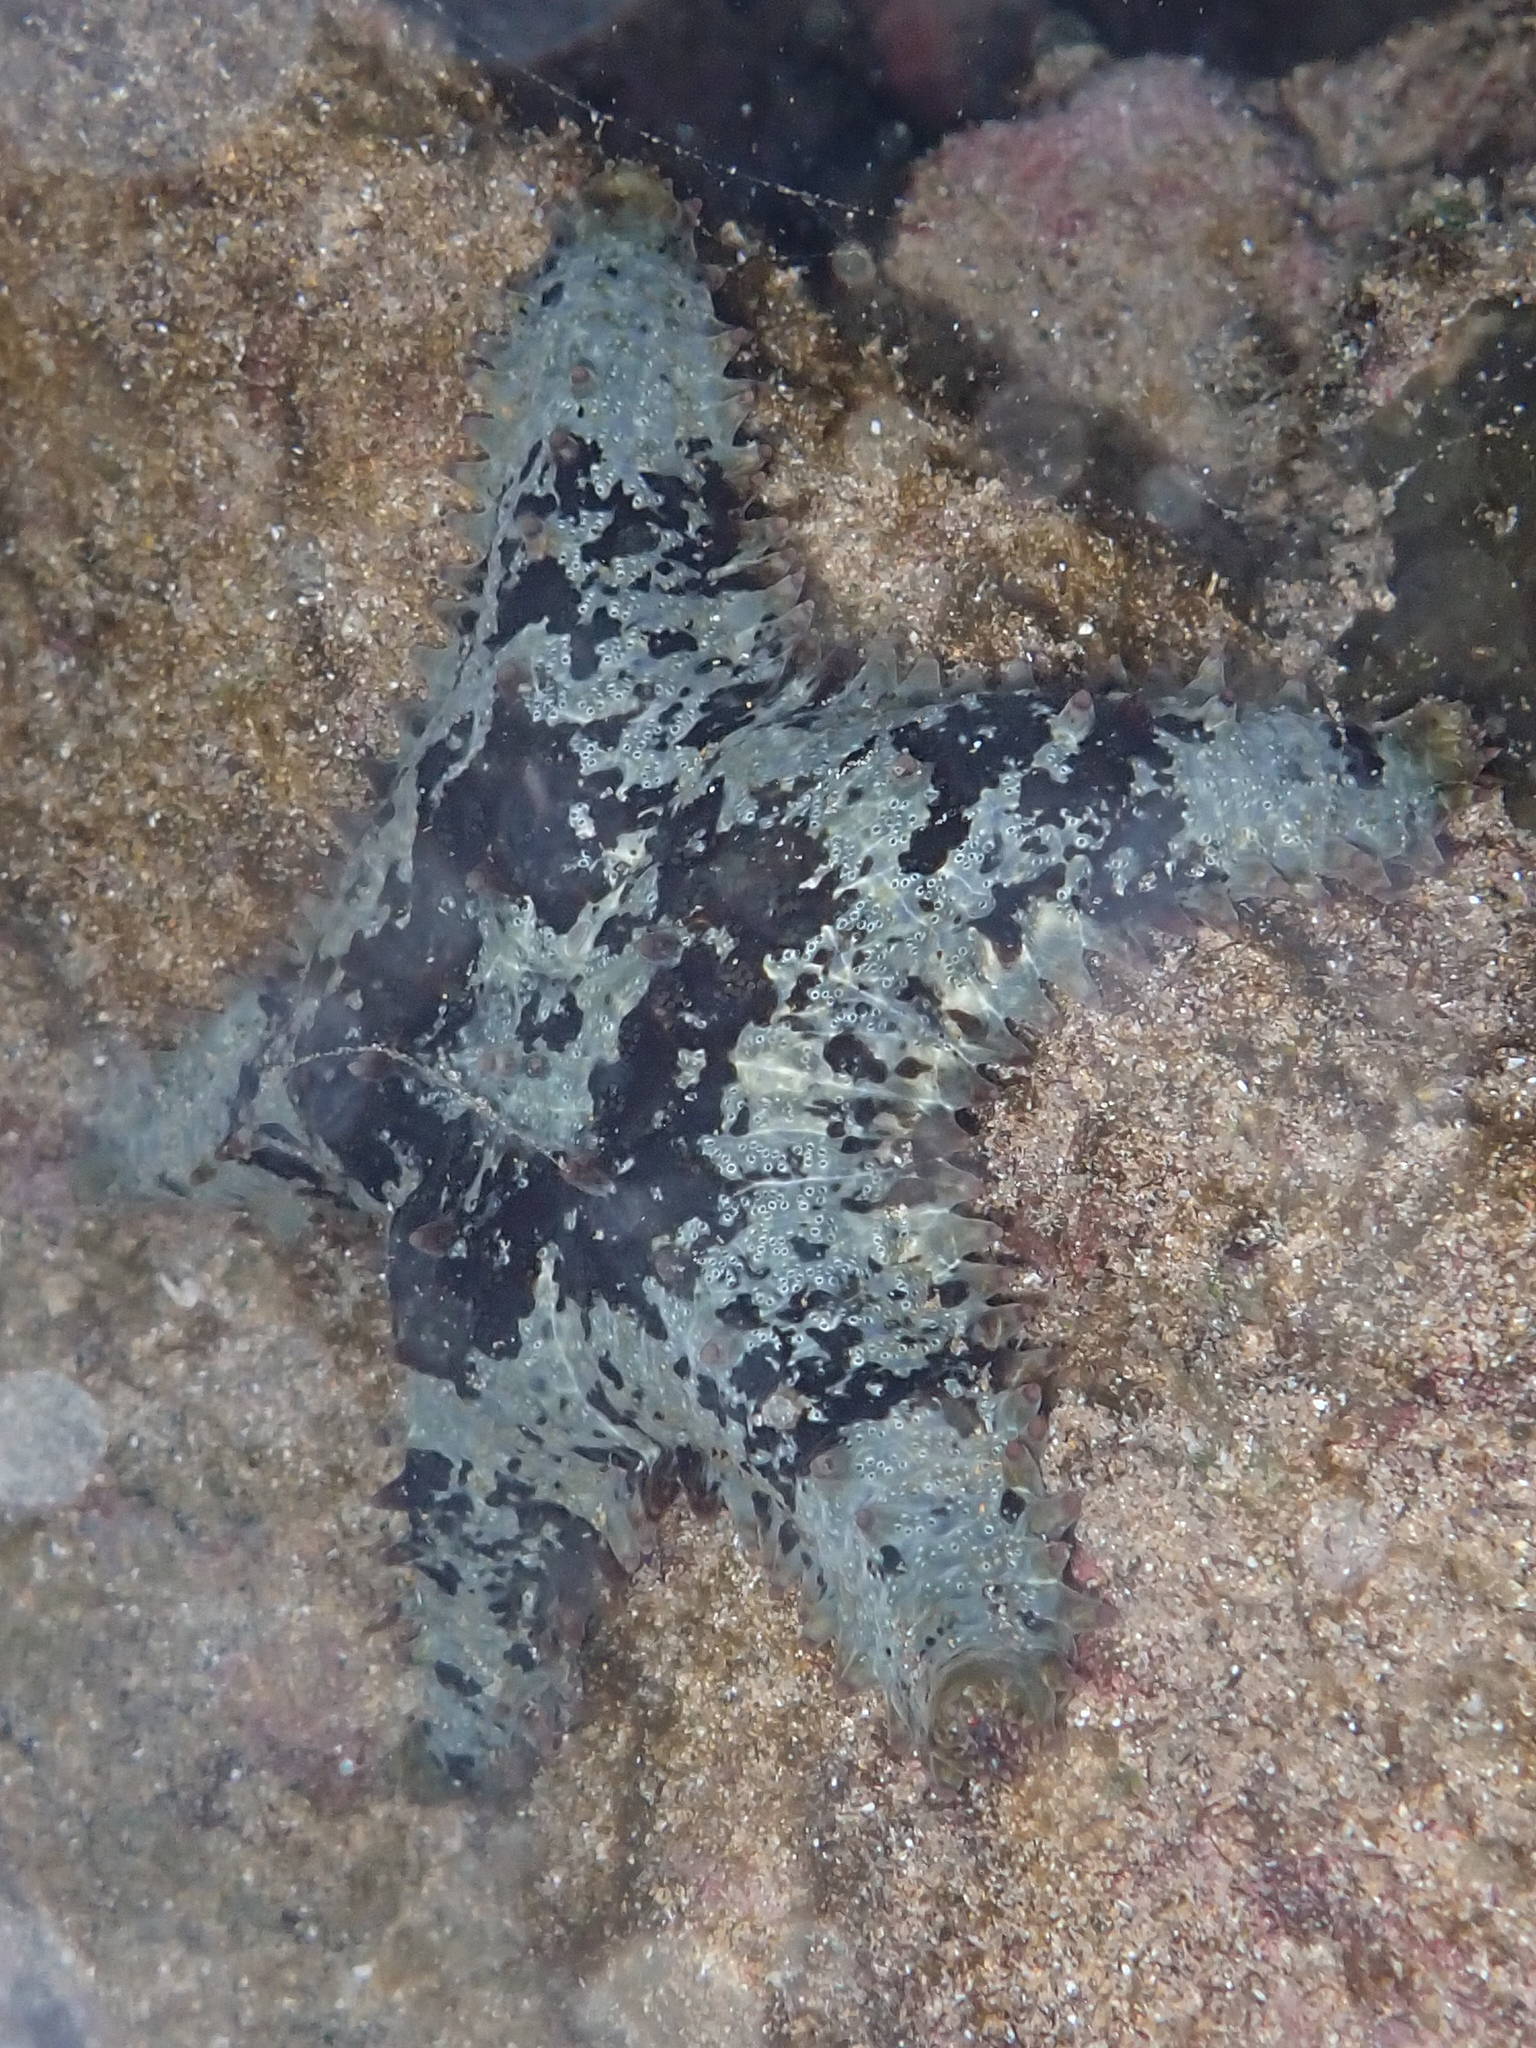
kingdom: Animalia
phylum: Echinodermata
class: Asteroidea
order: Valvatida
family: Asteropseidae
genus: Asteropsis
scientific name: Asteropsis carinifera
